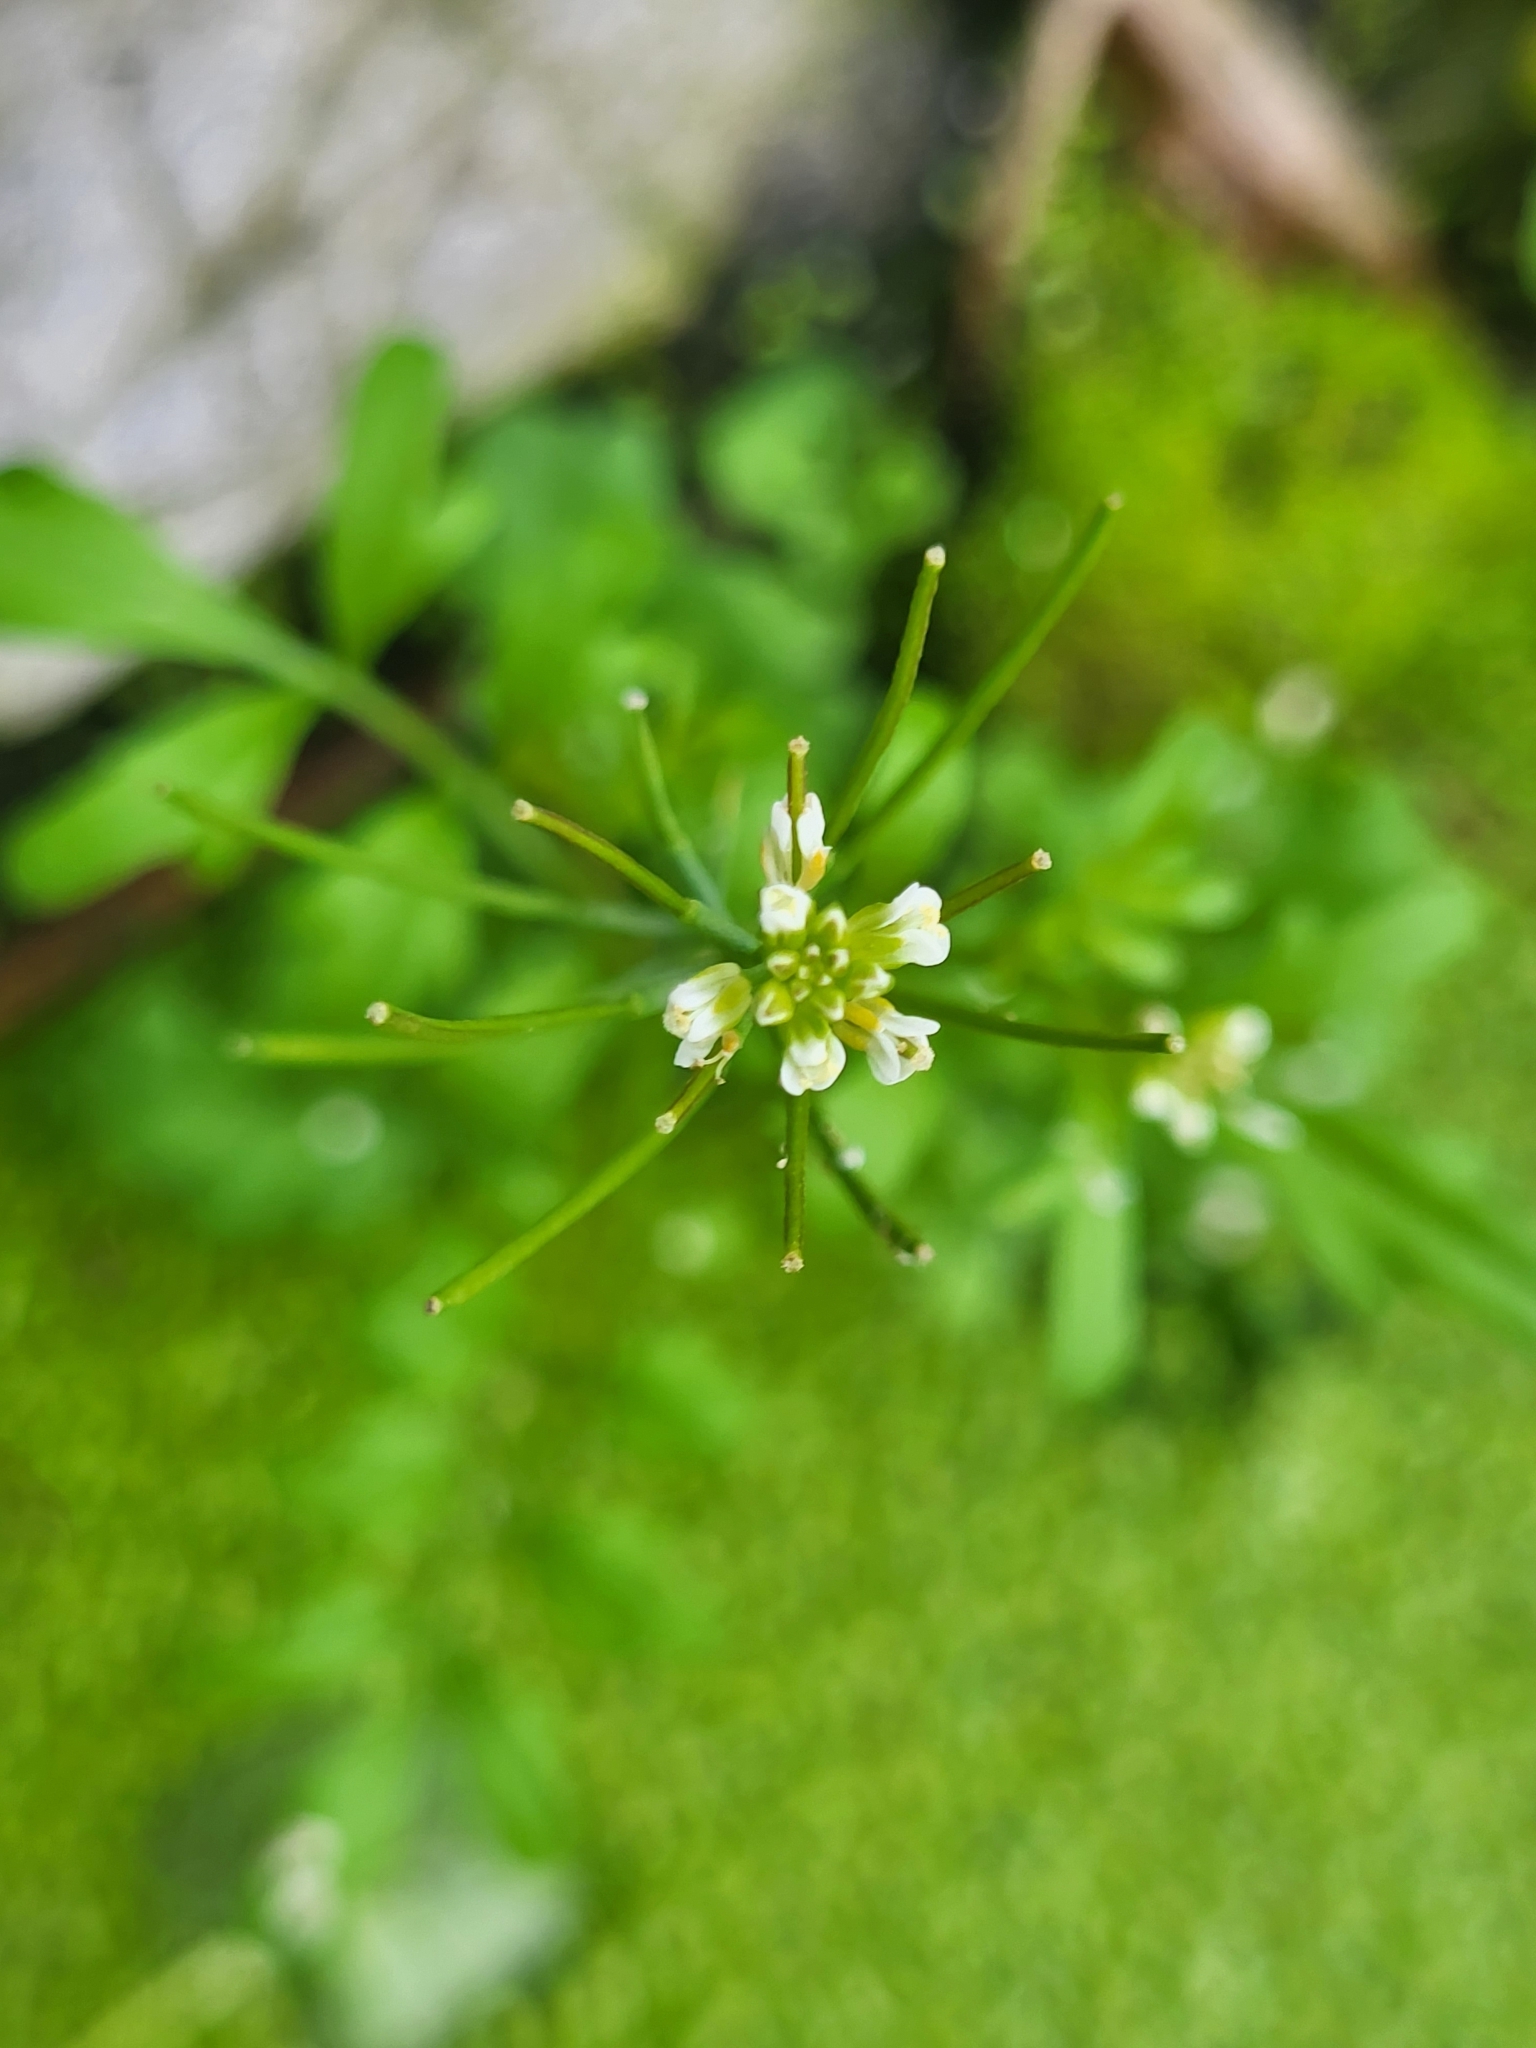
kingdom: Plantae
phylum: Tracheophyta
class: Magnoliopsida
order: Brassicales
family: Brassicaceae
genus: Cardamine
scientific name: Cardamine occulta
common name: Asian wavy bittercress
